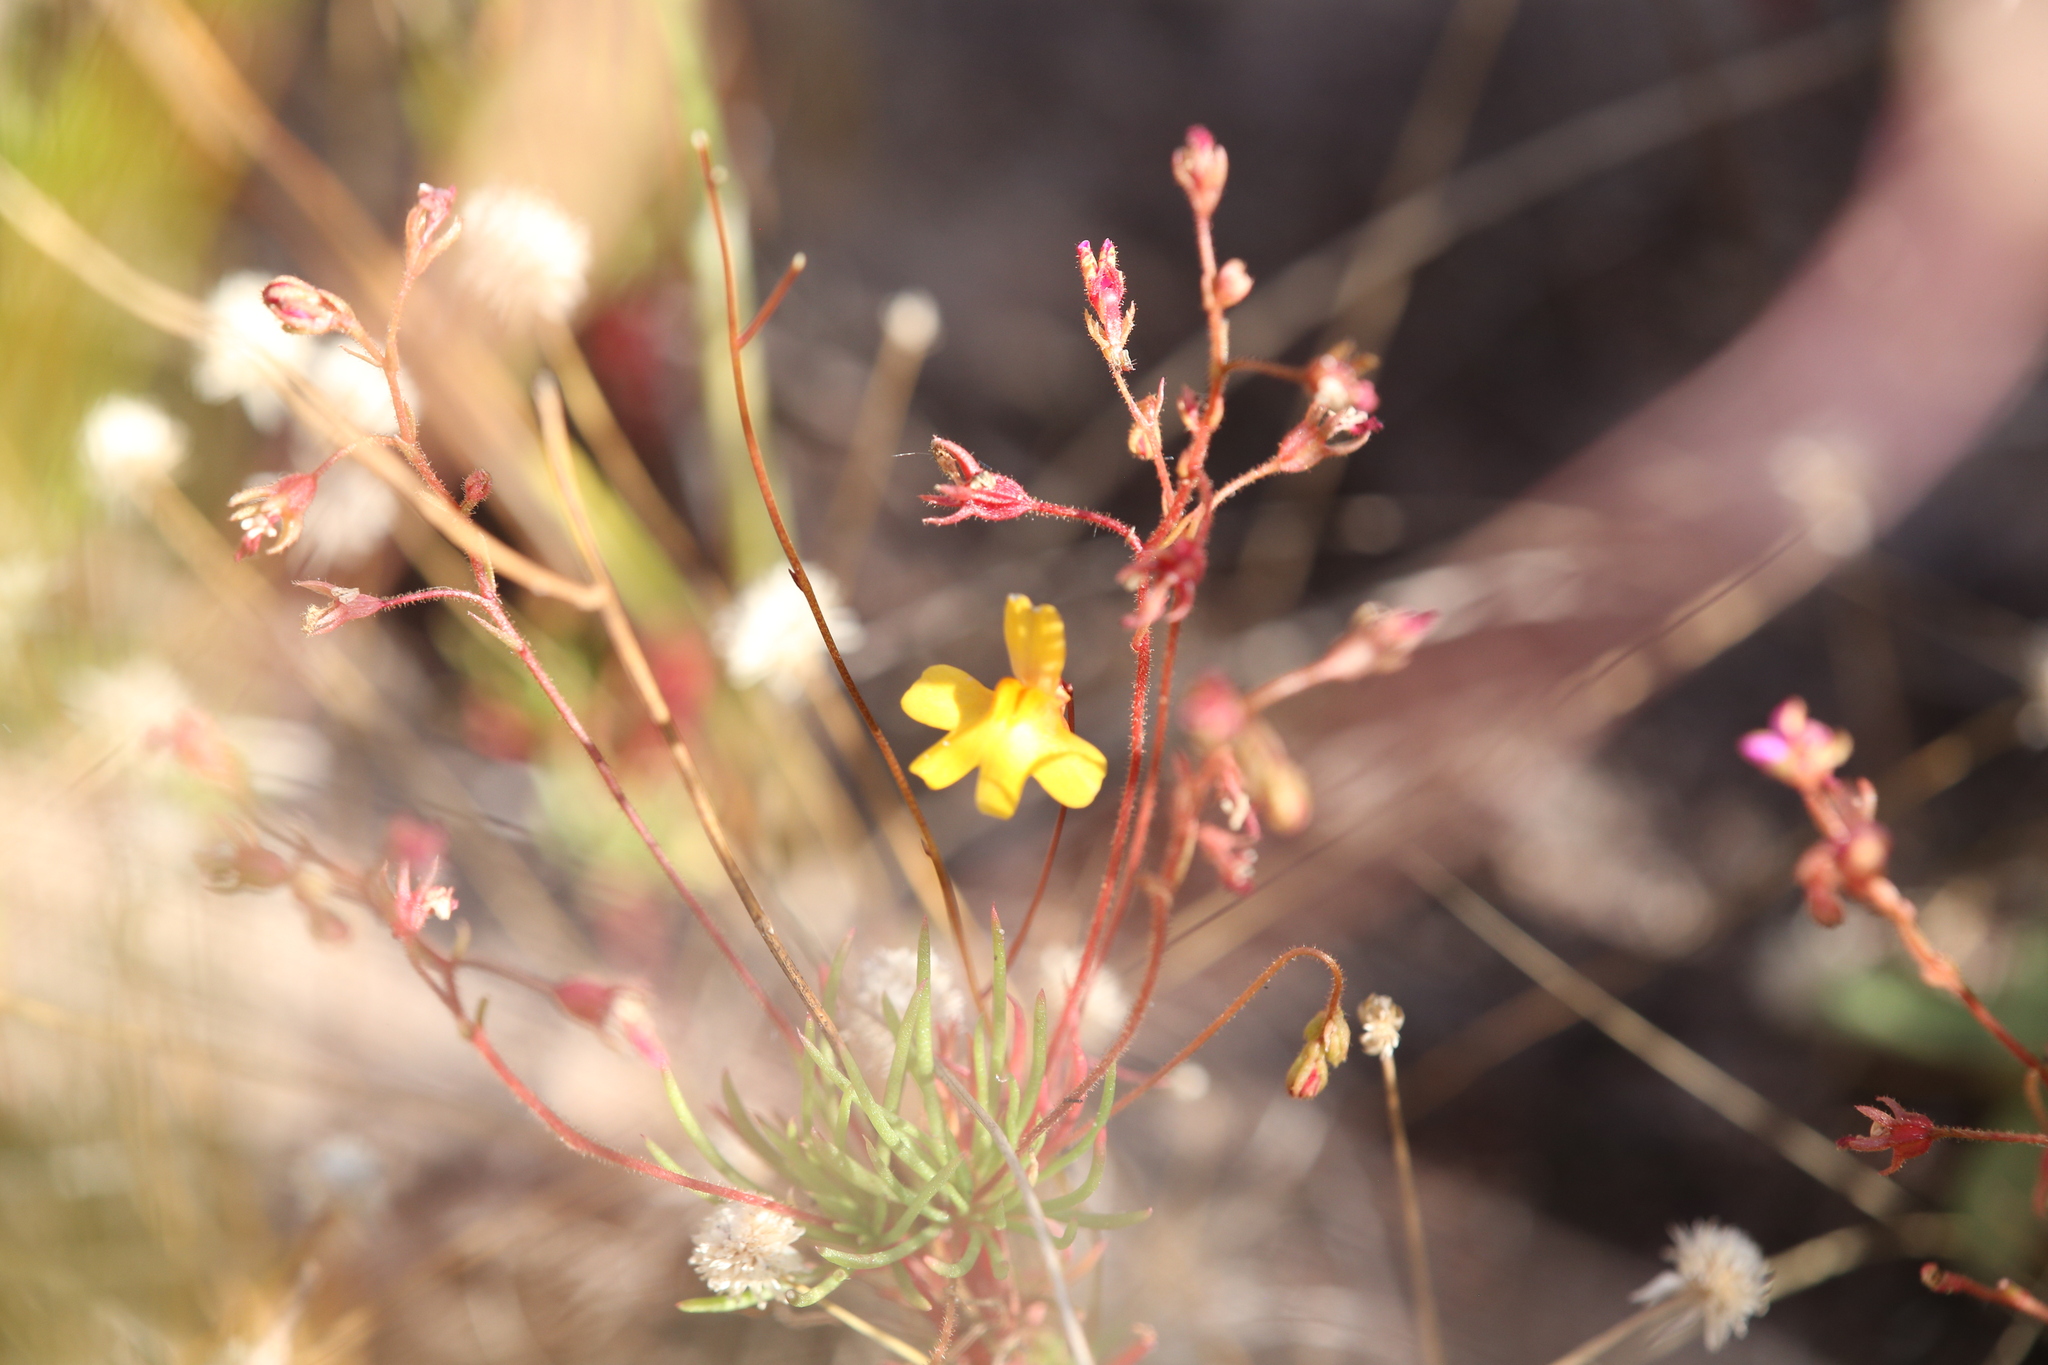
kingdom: Plantae
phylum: Tracheophyta
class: Magnoliopsida
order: Lamiales
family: Lentibulariaceae
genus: Utricularia
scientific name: Utricularia chrysantha
